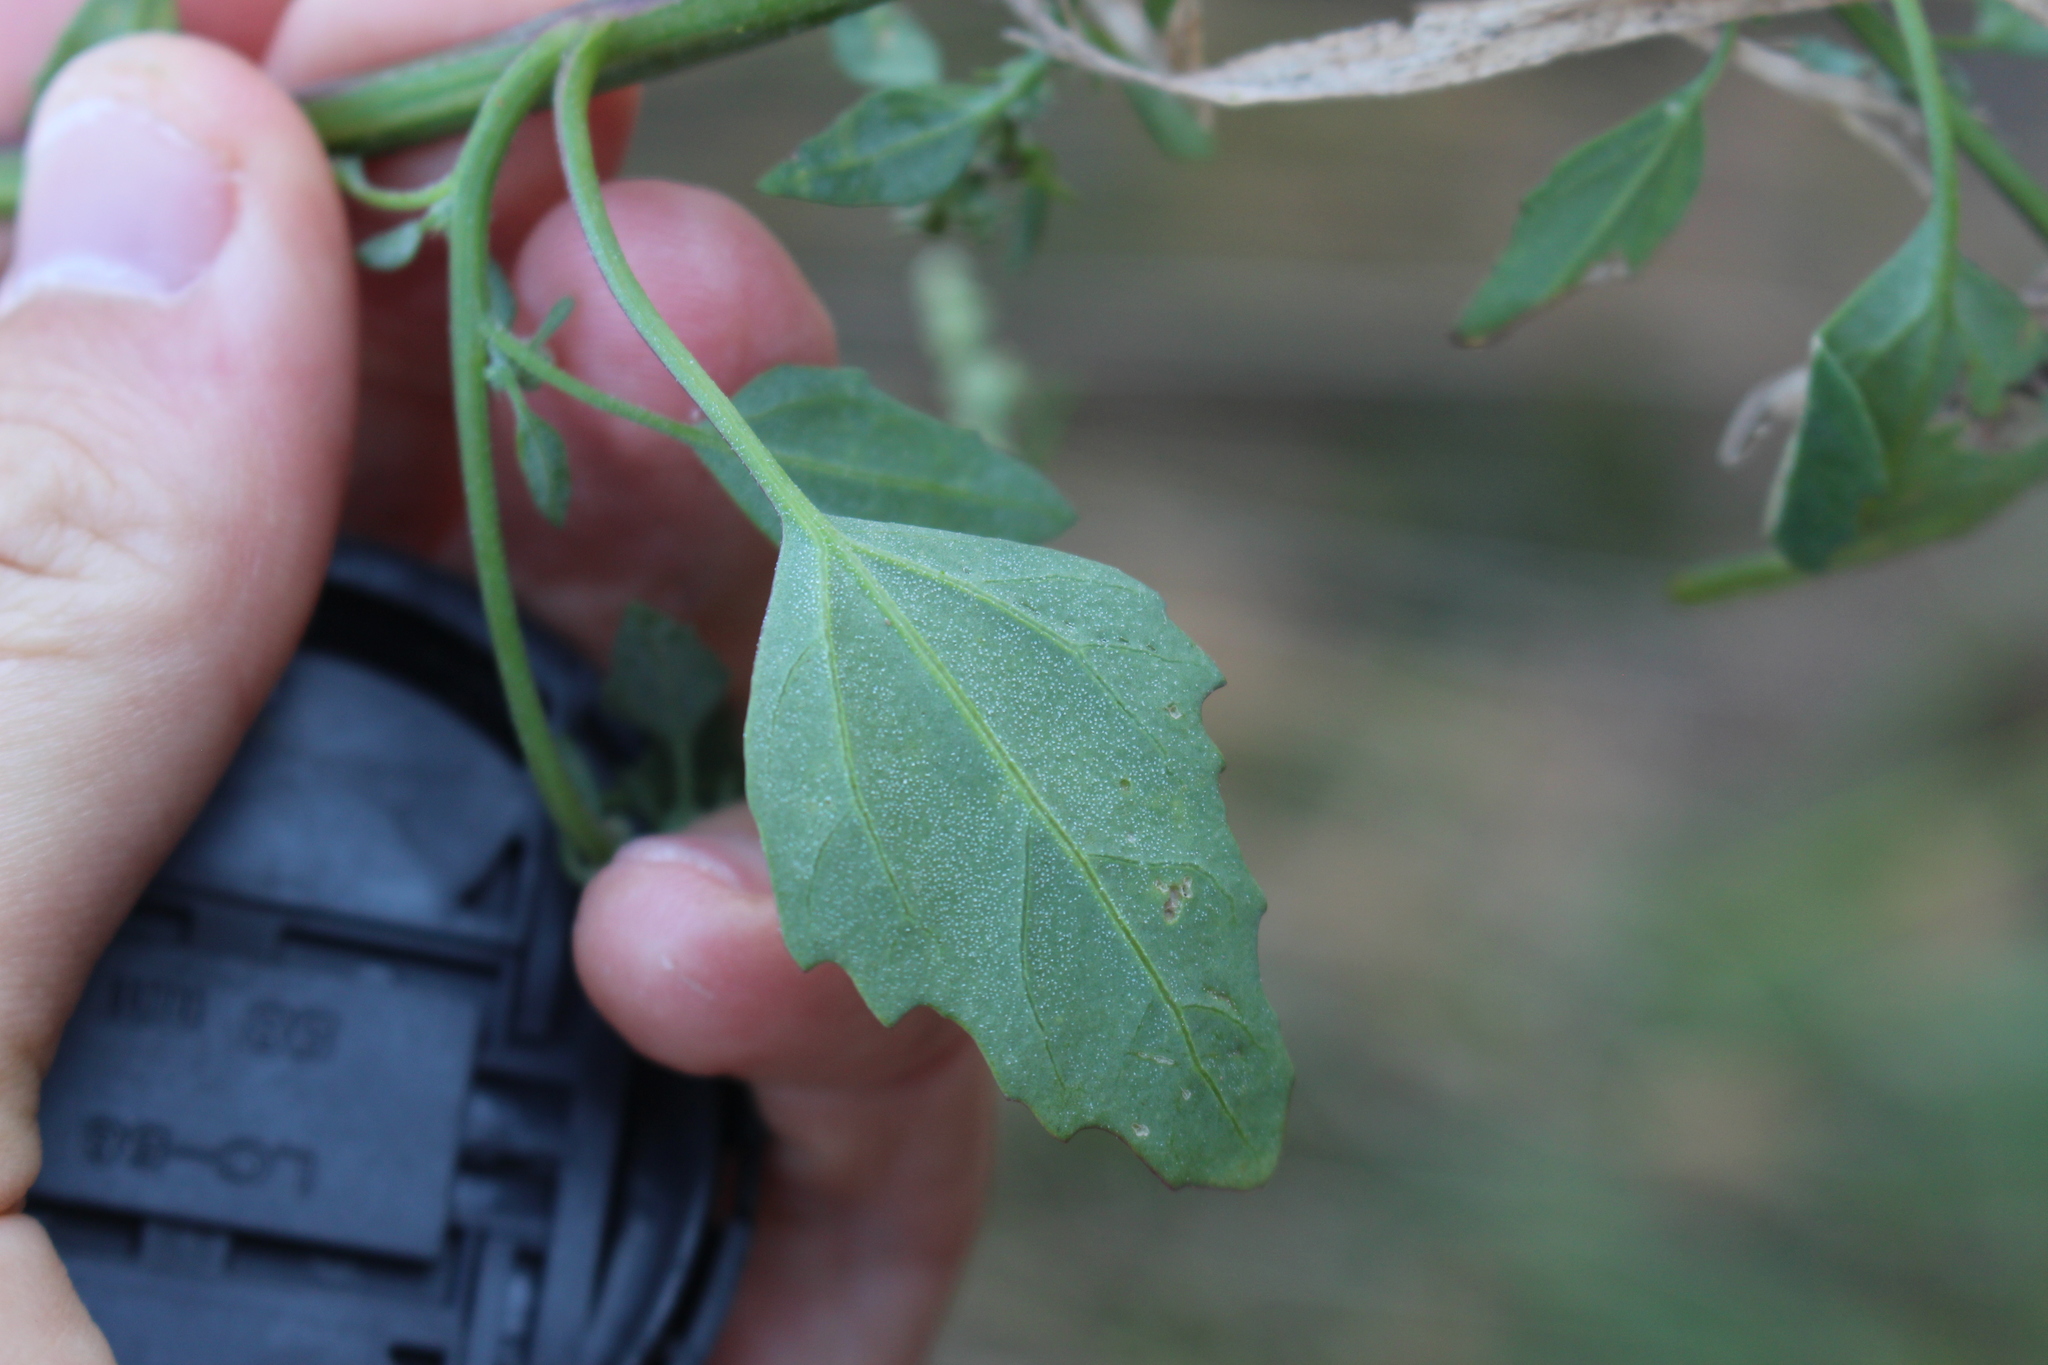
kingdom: Plantae
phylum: Tracheophyta
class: Magnoliopsida
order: Caryophyllales
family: Amaranthaceae
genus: Chenopodium
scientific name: Chenopodium album
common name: Fat-hen
